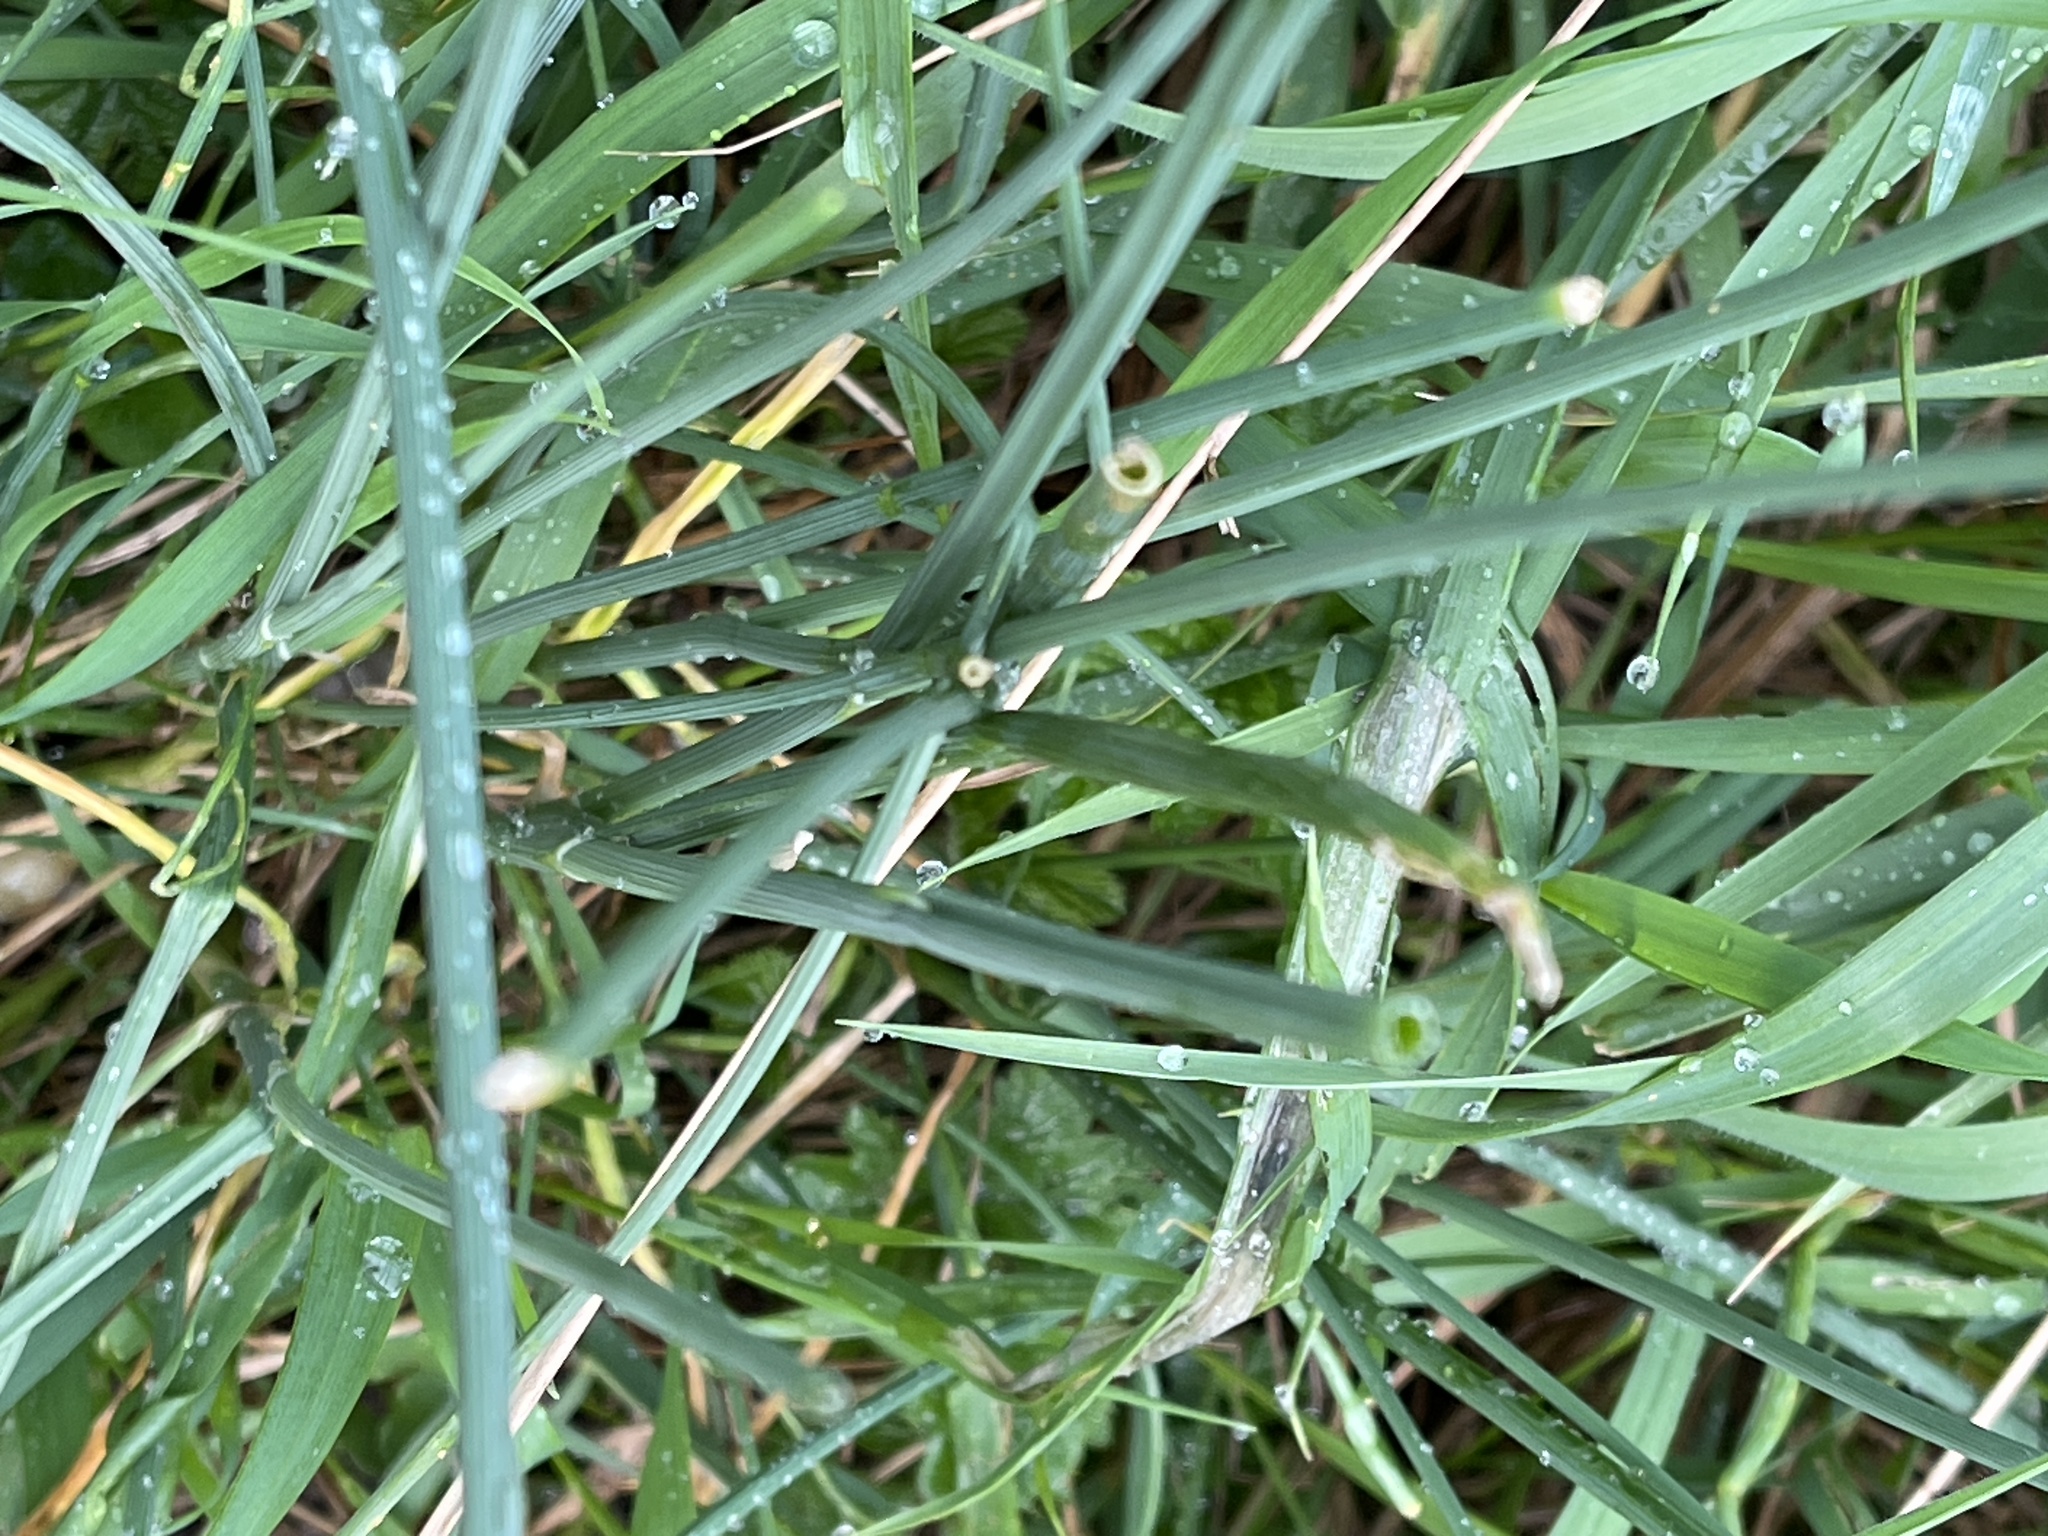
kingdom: Plantae
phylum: Tracheophyta
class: Liliopsida
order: Asparagales
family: Amaryllidaceae
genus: Allium
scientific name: Allium vineale
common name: Crow garlic
